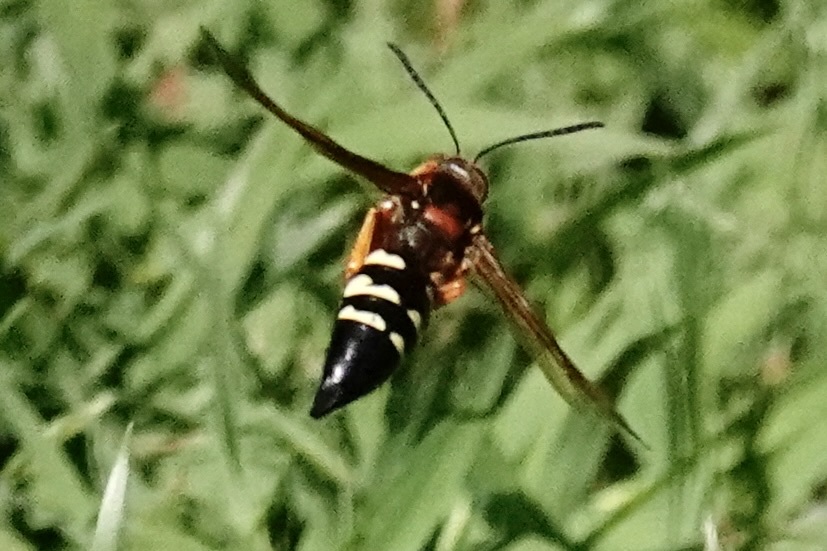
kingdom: Animalia
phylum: Arthropoda
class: Insecta
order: Hymenoptera
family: Crabronidae
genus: Sphecius
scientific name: Sphecius speciosus
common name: Cicada killer
